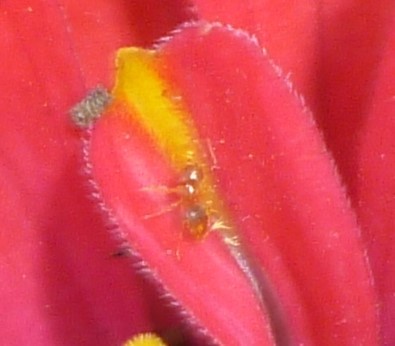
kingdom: Animalia
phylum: Arthropoda
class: Insecta
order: Hymenoptera
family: Formicidae
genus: Brachymyrmex
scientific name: Brachymyrmex depilis
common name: Hairless rover ant
